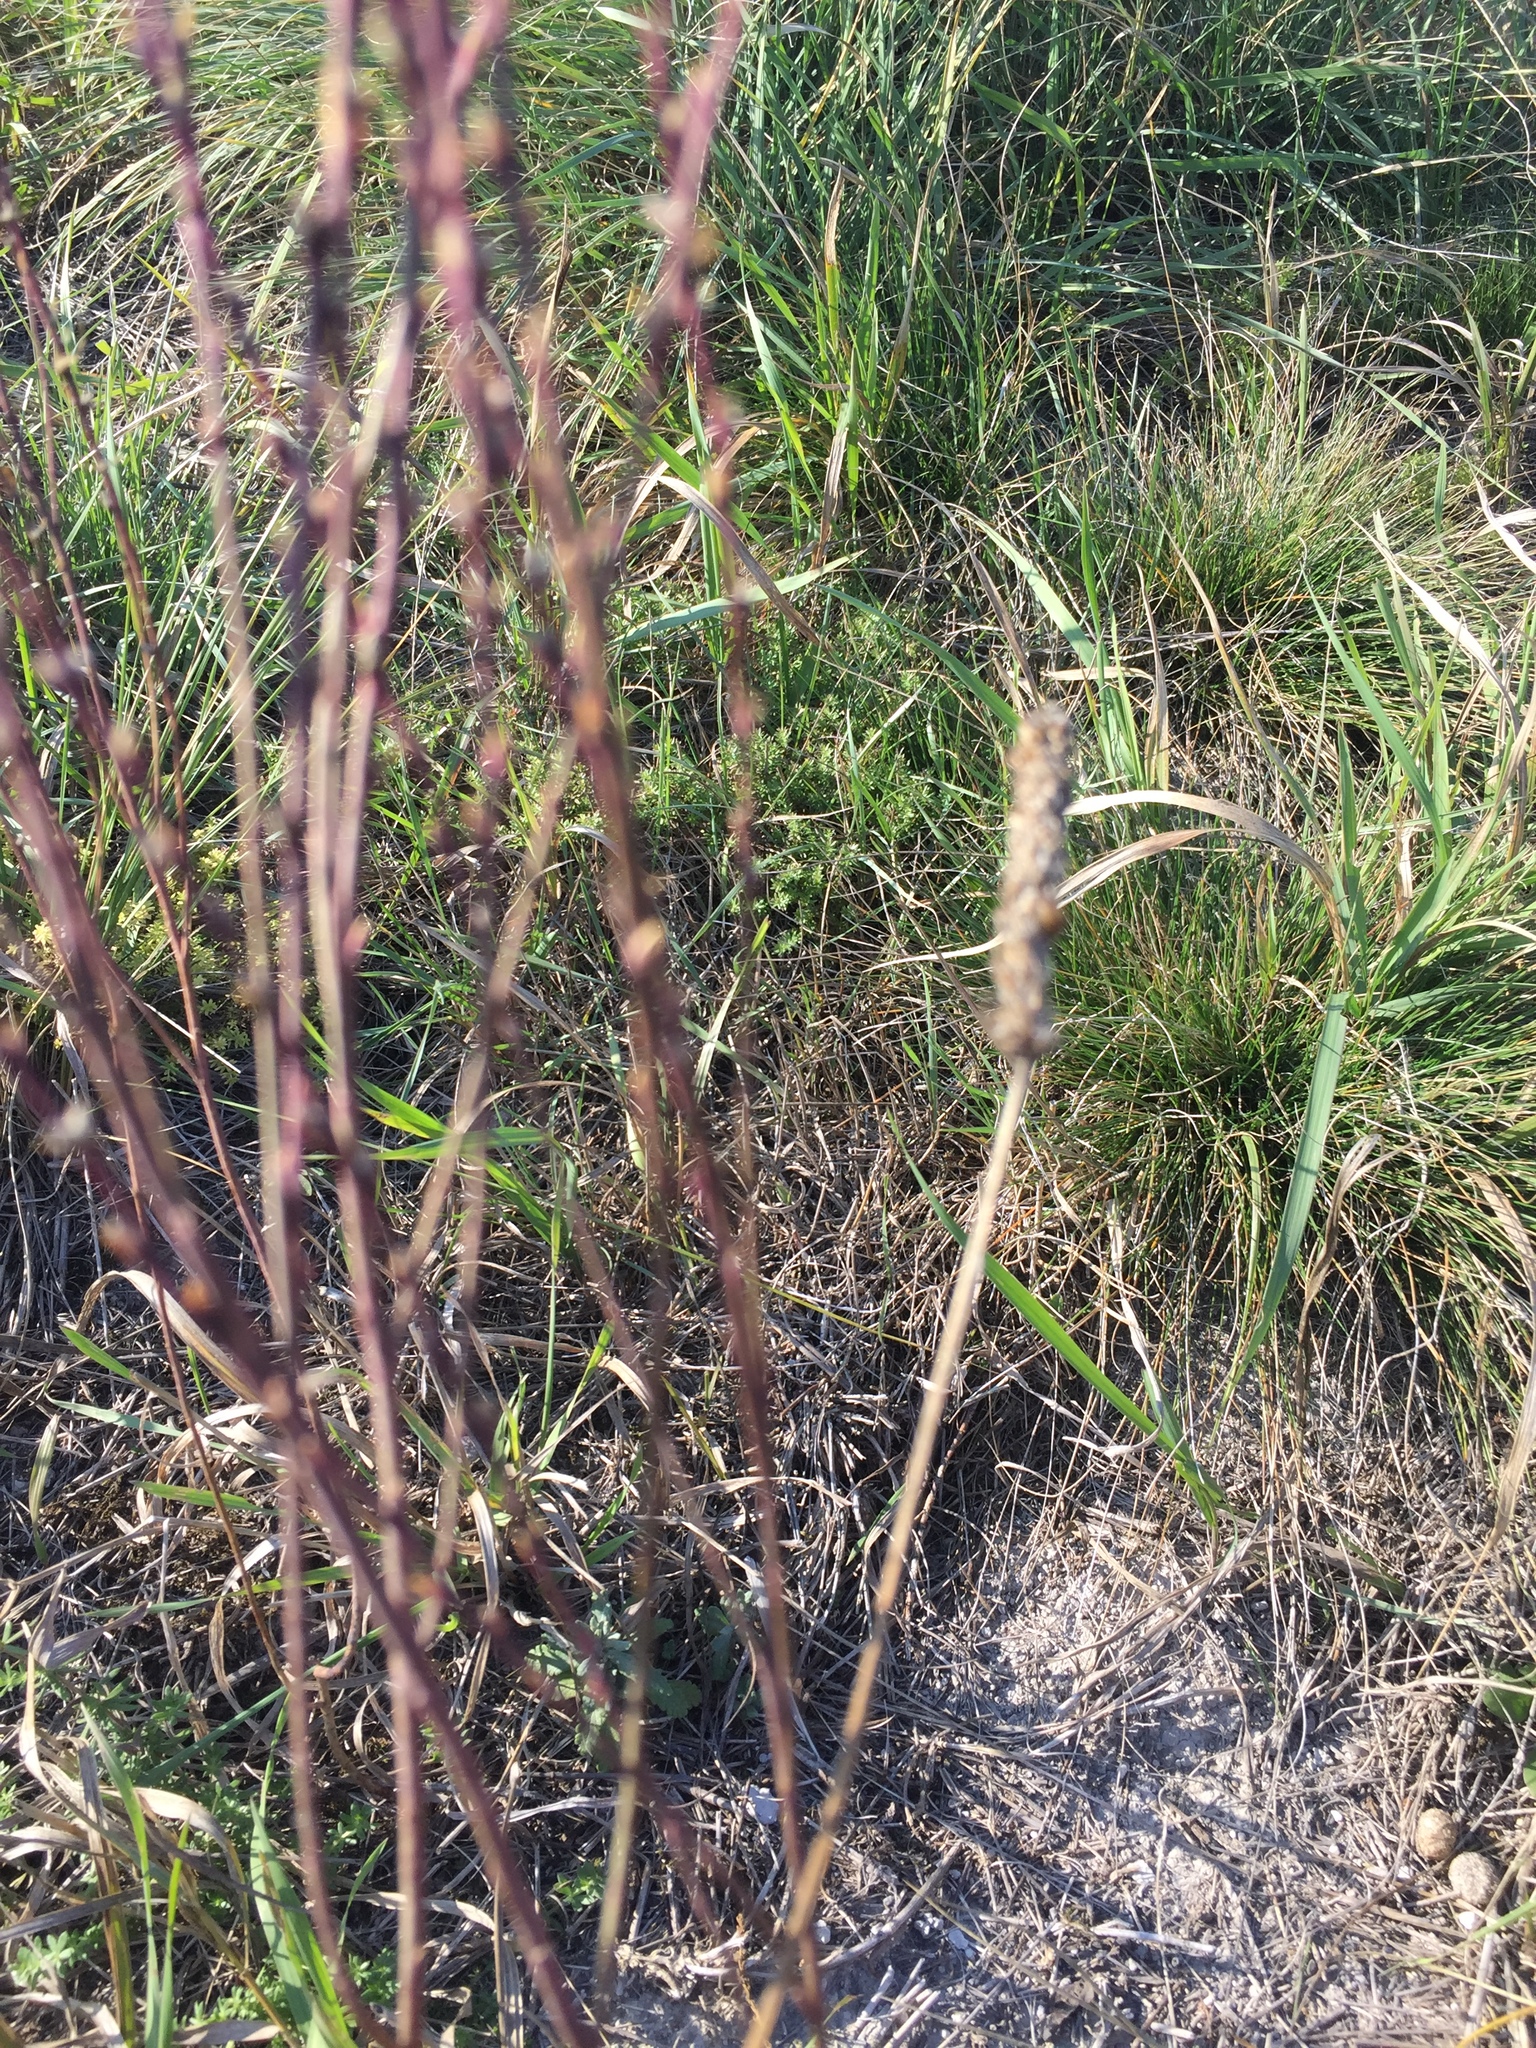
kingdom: Plantae
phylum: Tracheophyta
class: Magnoliopsida
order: Malvales
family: Thymelaeaceae
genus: Thymelaea
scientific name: Thymelaea passerina
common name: Annual thymelaea
